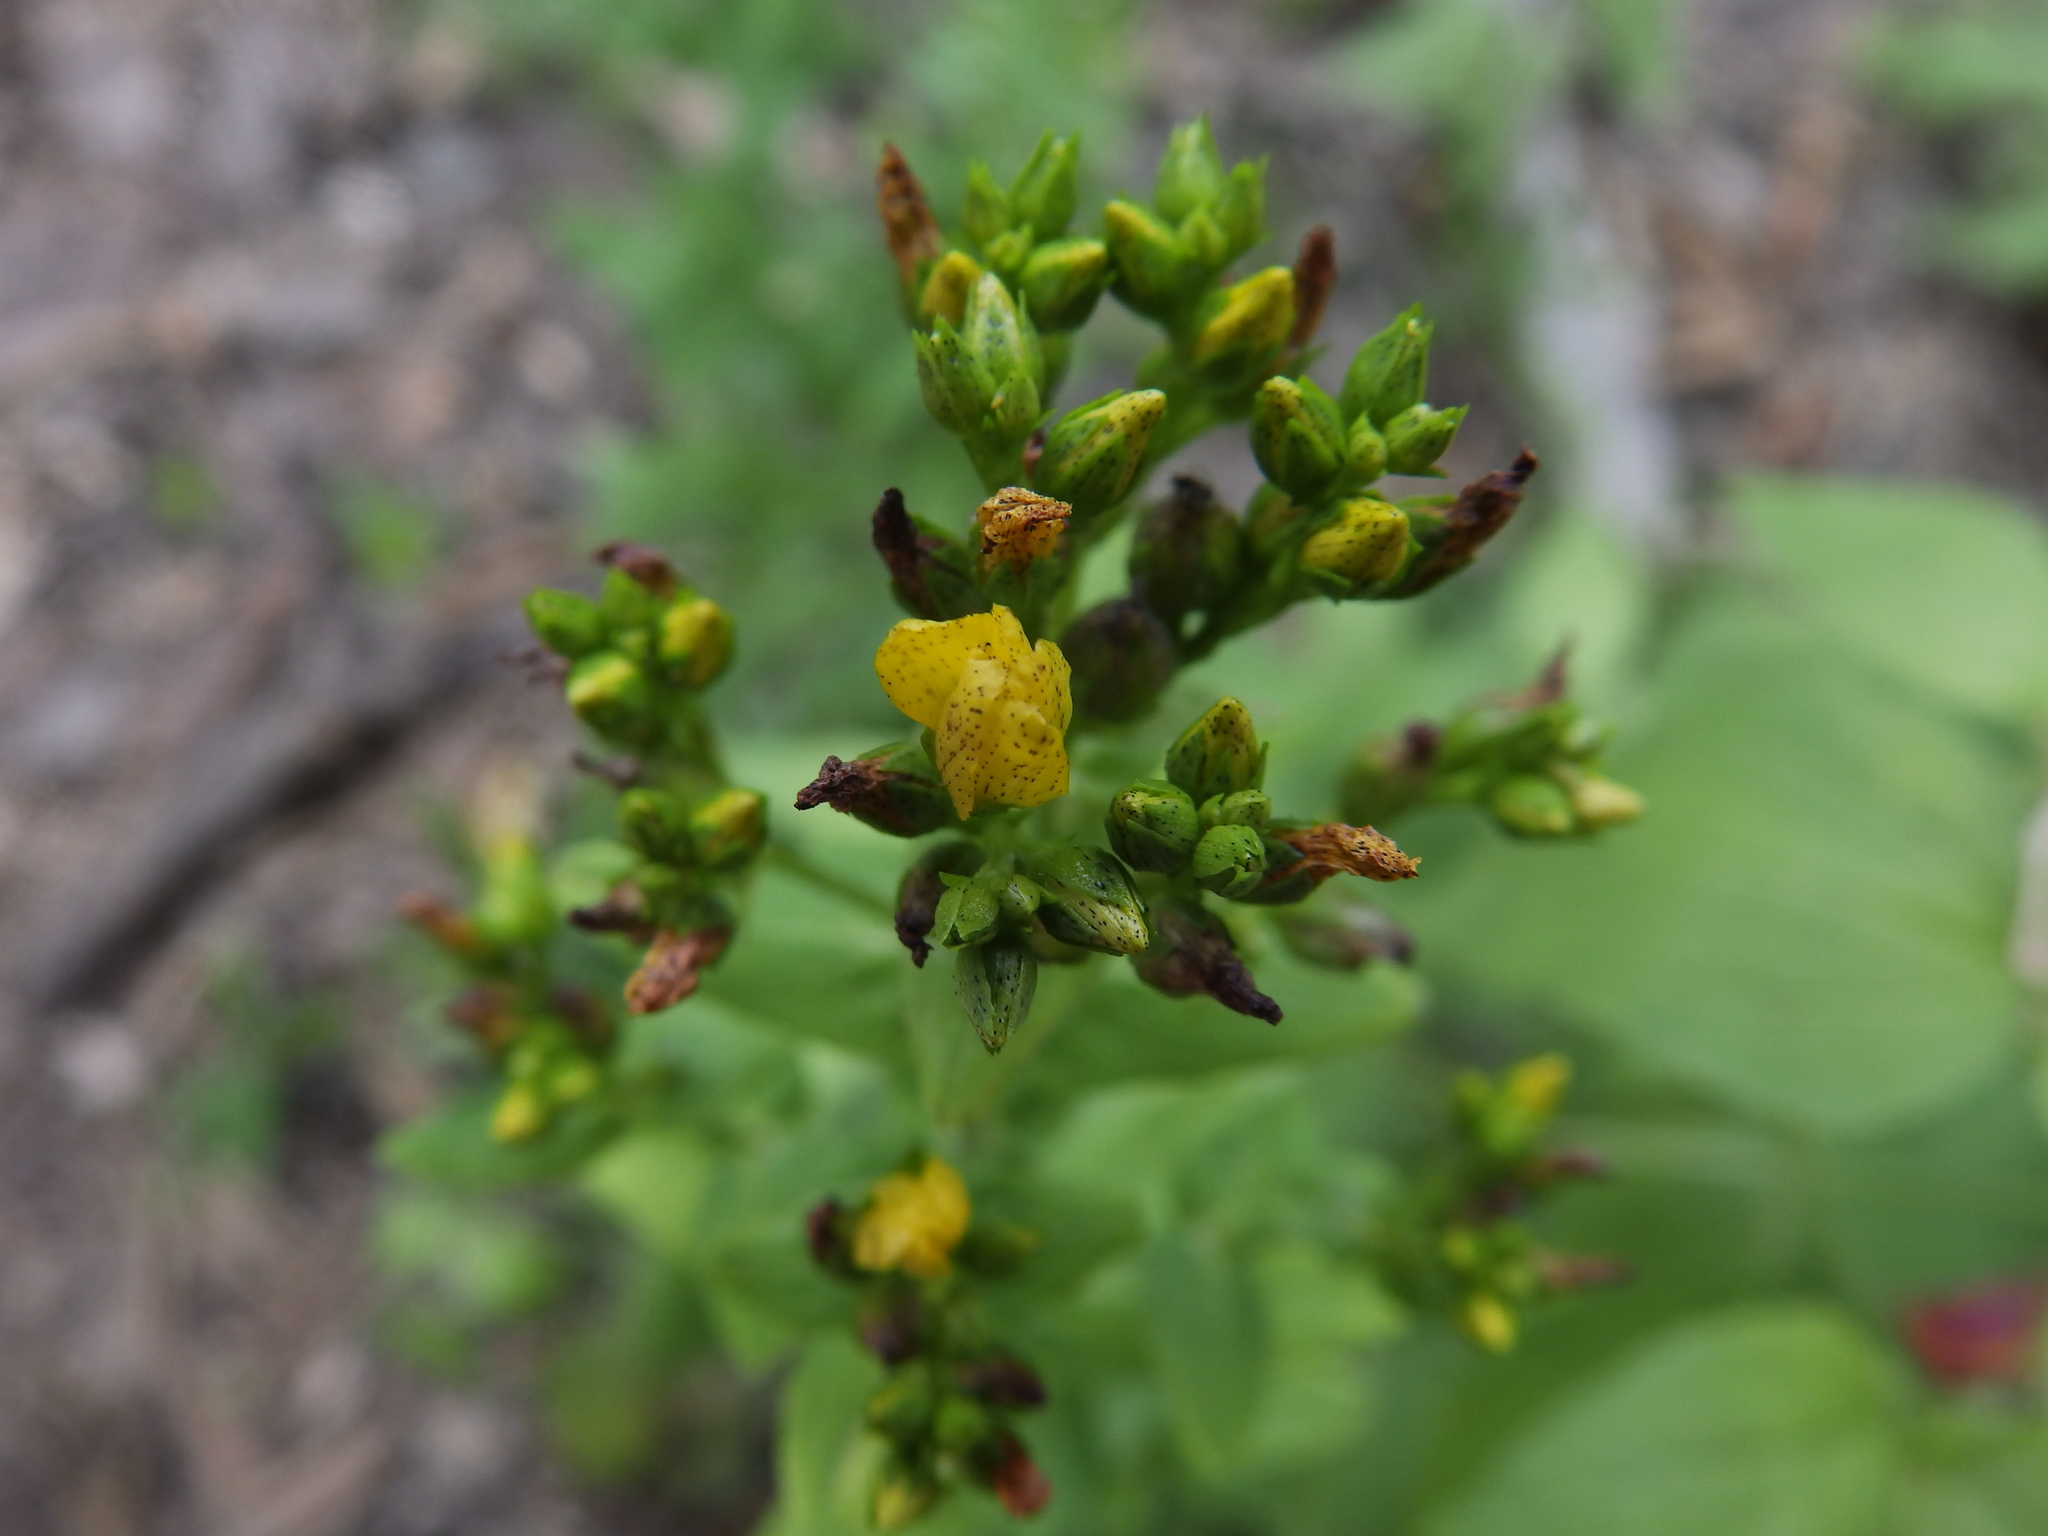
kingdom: Plantae
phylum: Tracheophyta
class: Magnoliopsida
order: Malpighiales
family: Hypericaceae
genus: Hypericum
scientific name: Hypericum punctatum
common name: Spotted st. john's-wort
